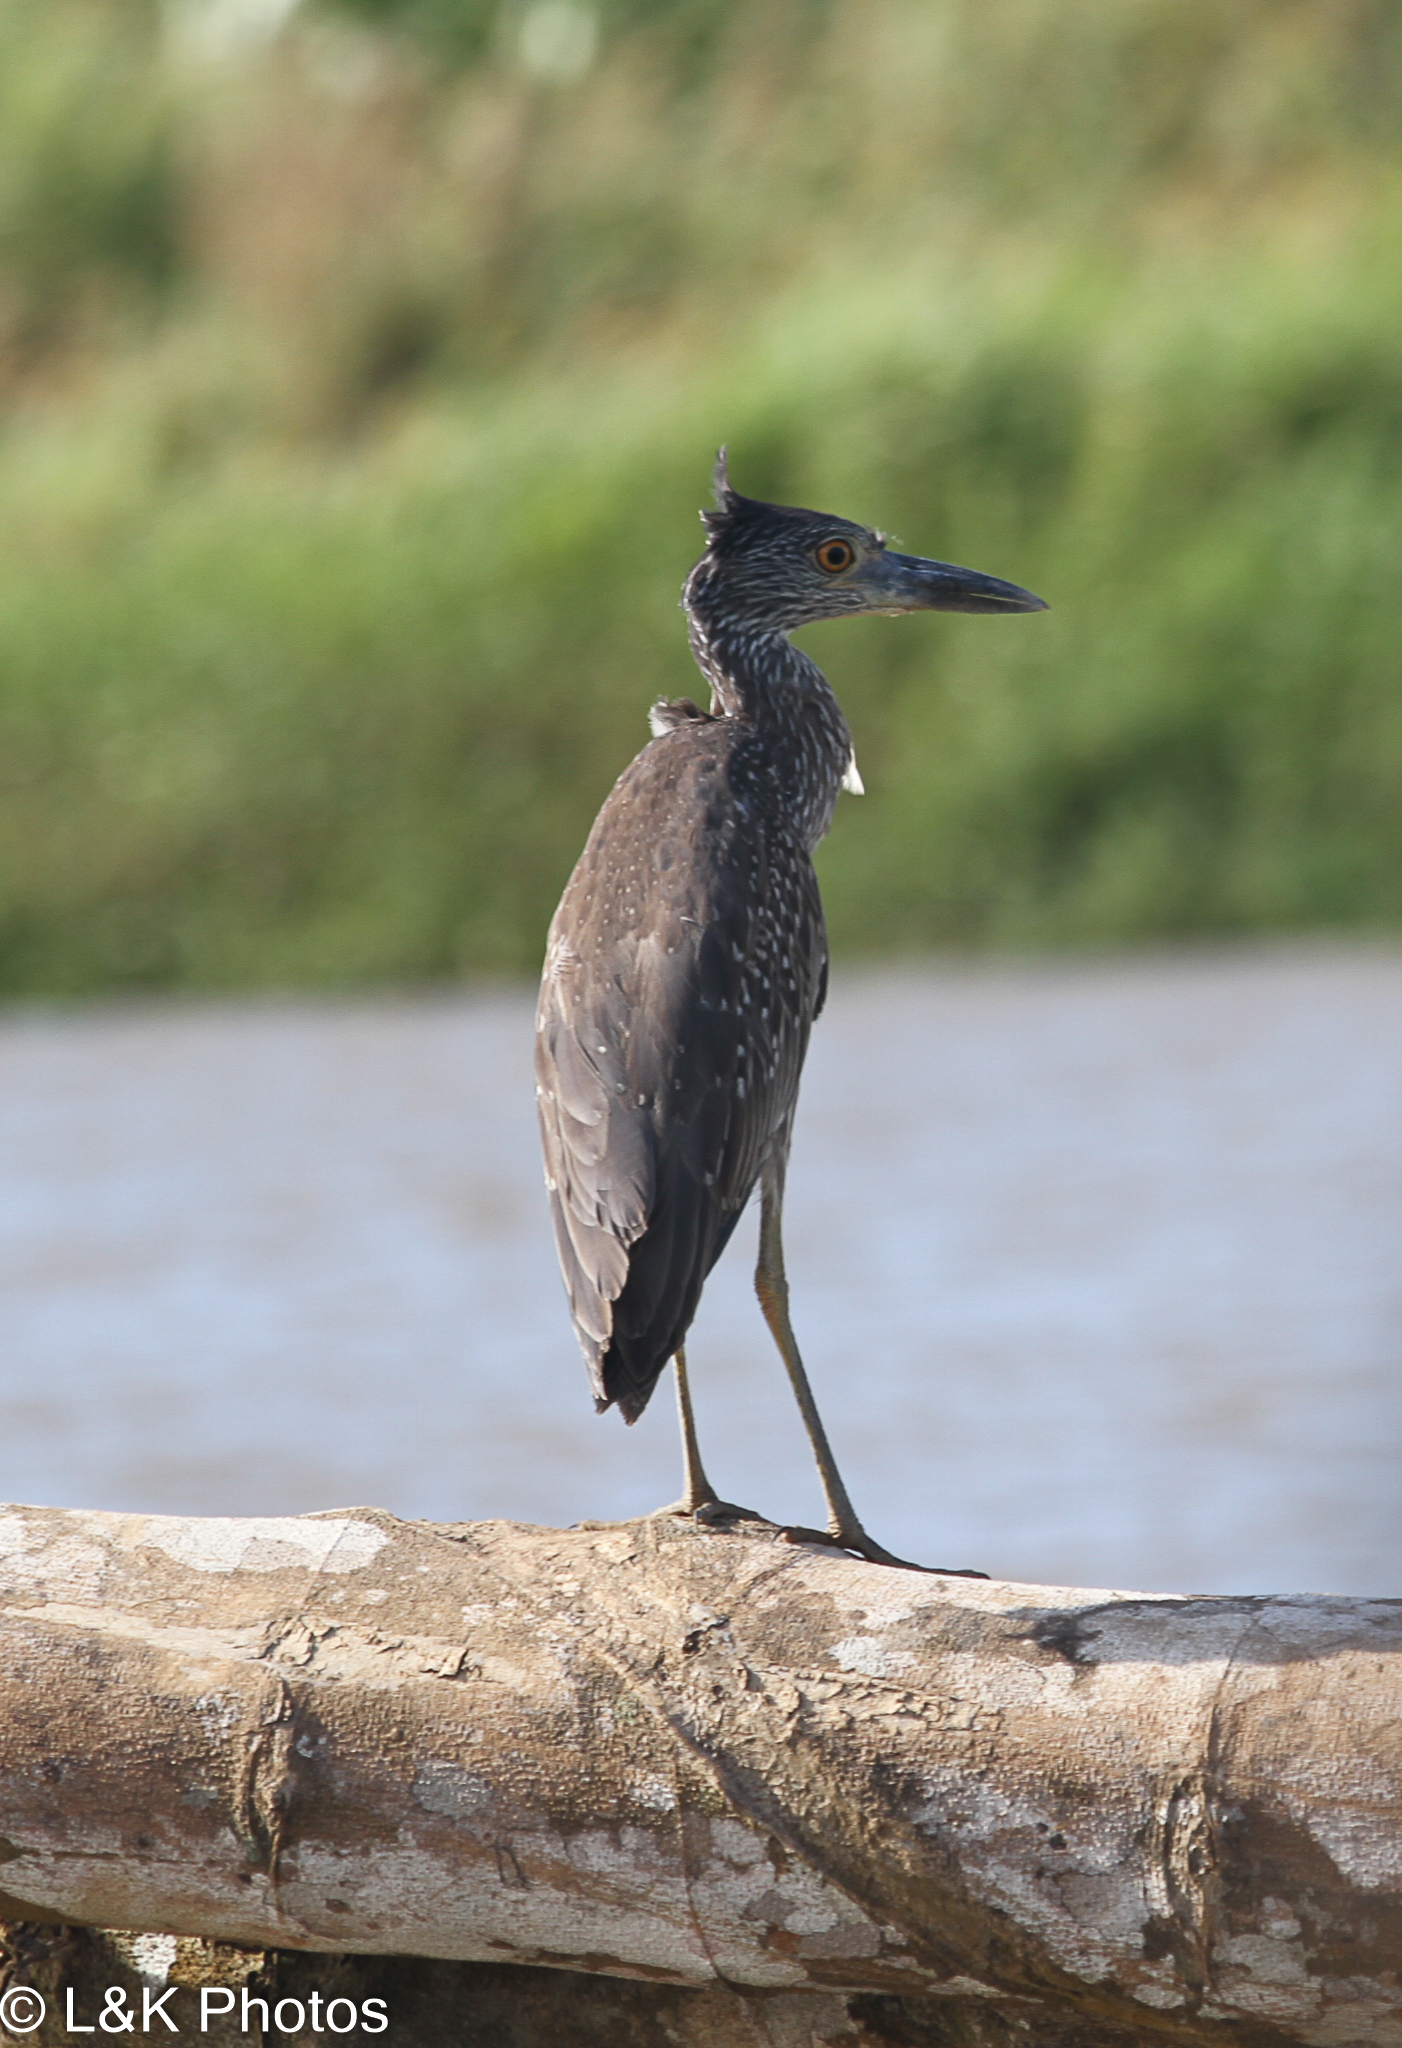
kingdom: Animalia
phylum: Chordata
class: Aves
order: Pelecaniformes
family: Ardeidae
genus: Nyctanassa
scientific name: Nyctanassa violacea
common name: Yellow-crowned night heron
